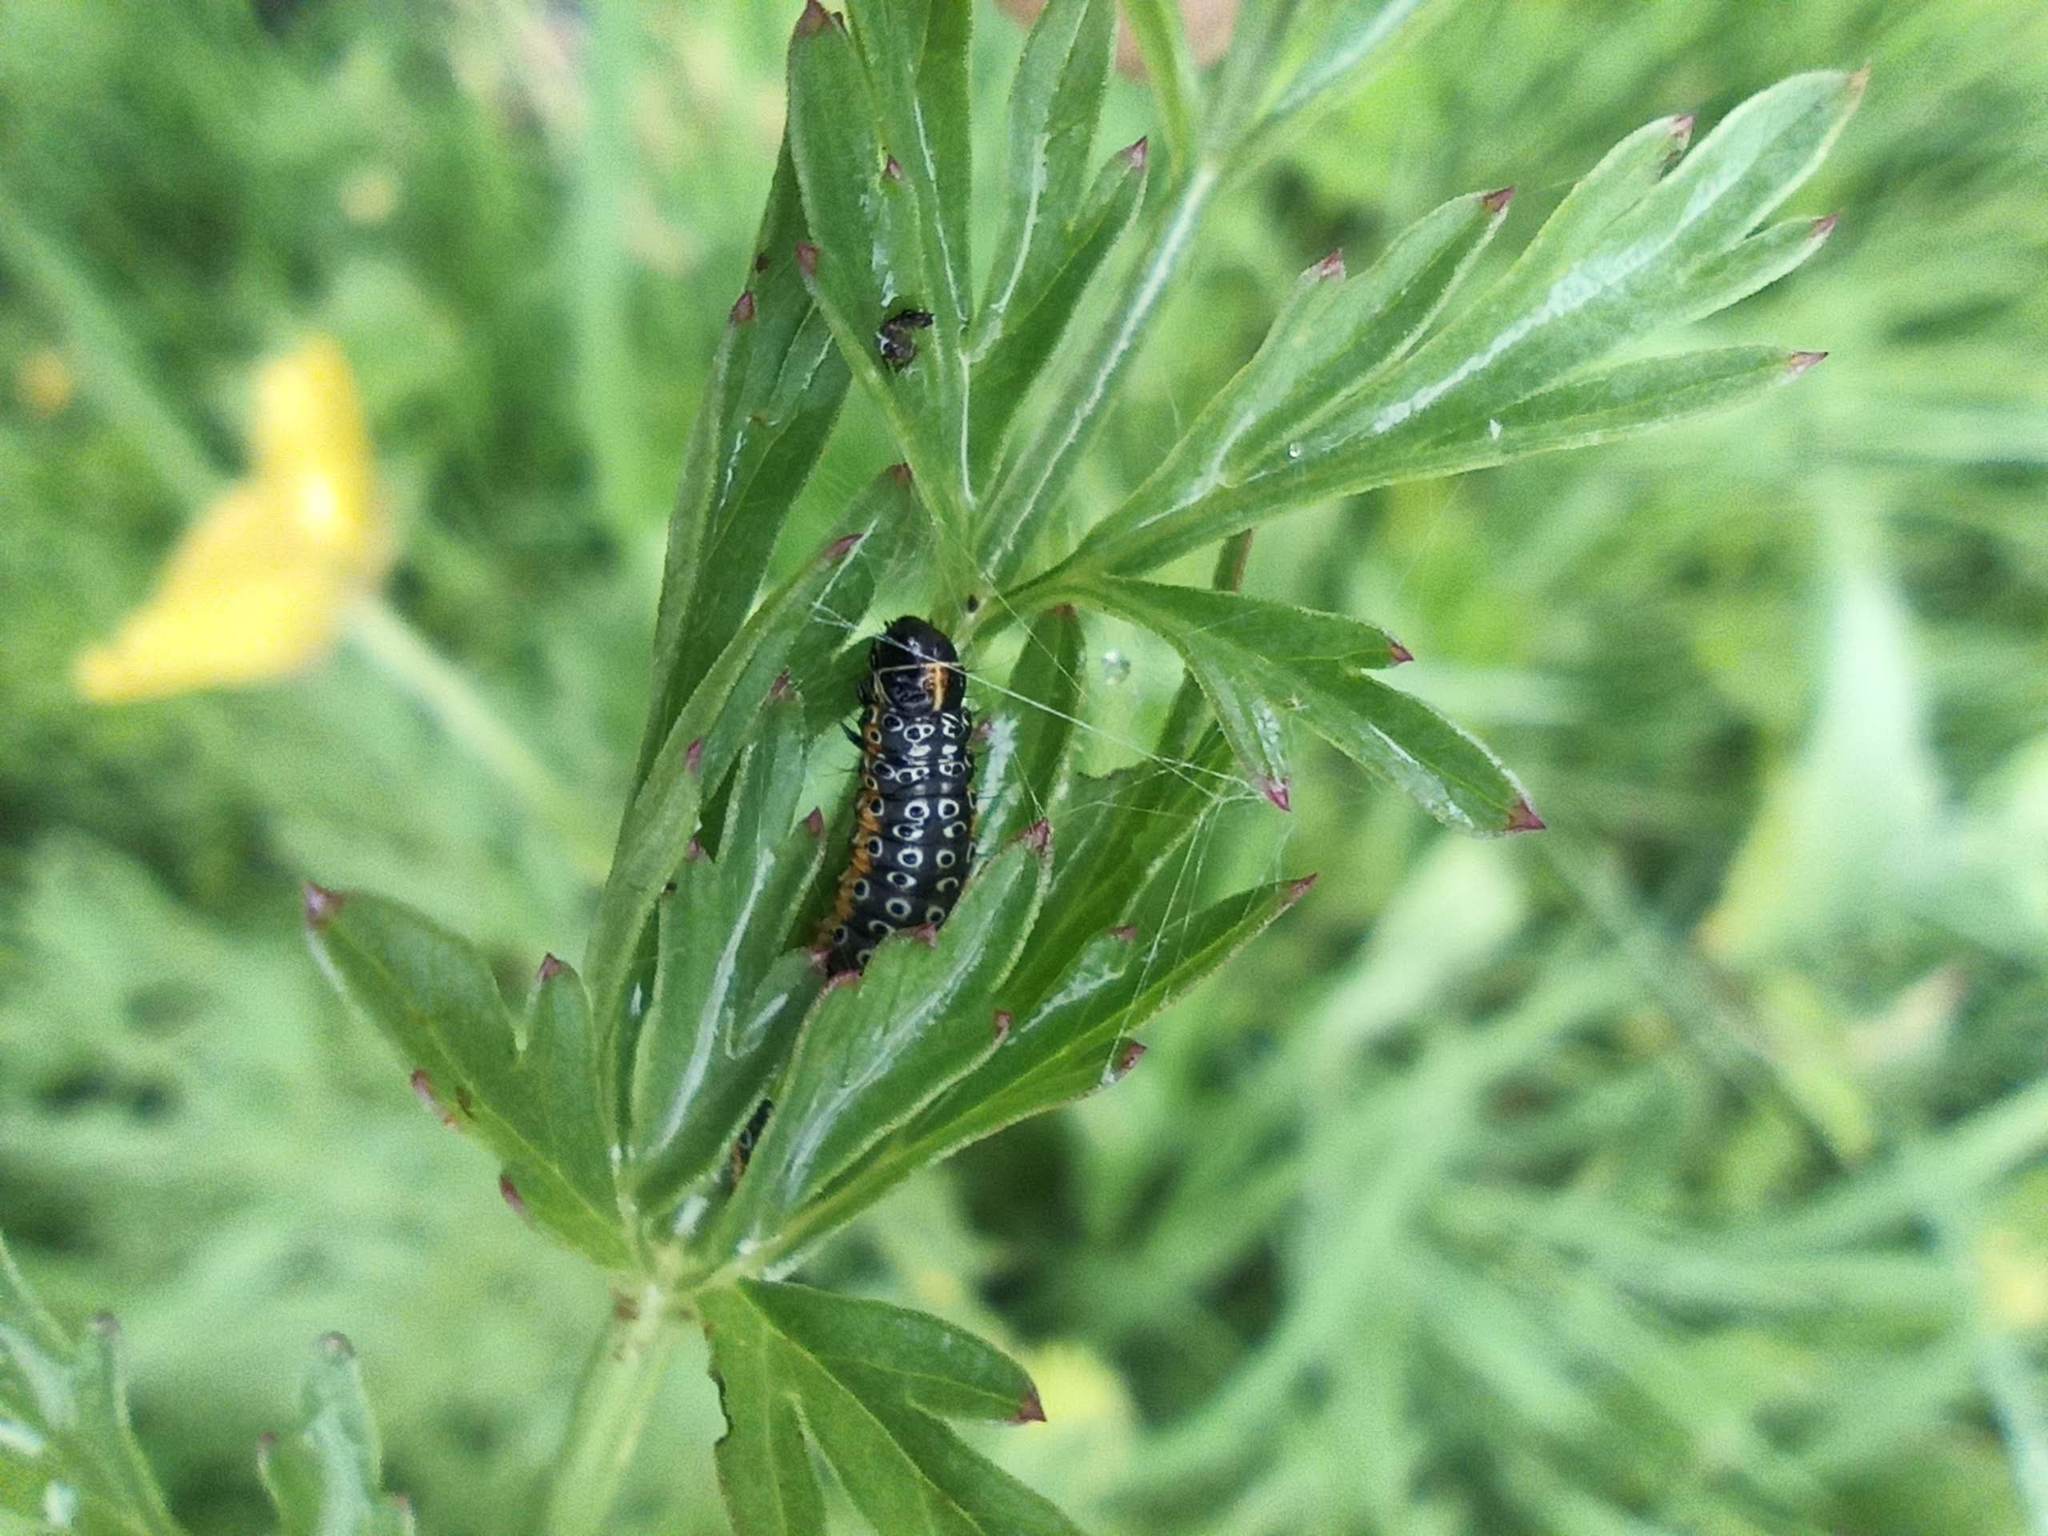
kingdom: Animalia
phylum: Arthropoda
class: Insecta
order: Lepidoptera
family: Depressariidae
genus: Depressaria
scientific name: Depressaria apiella
